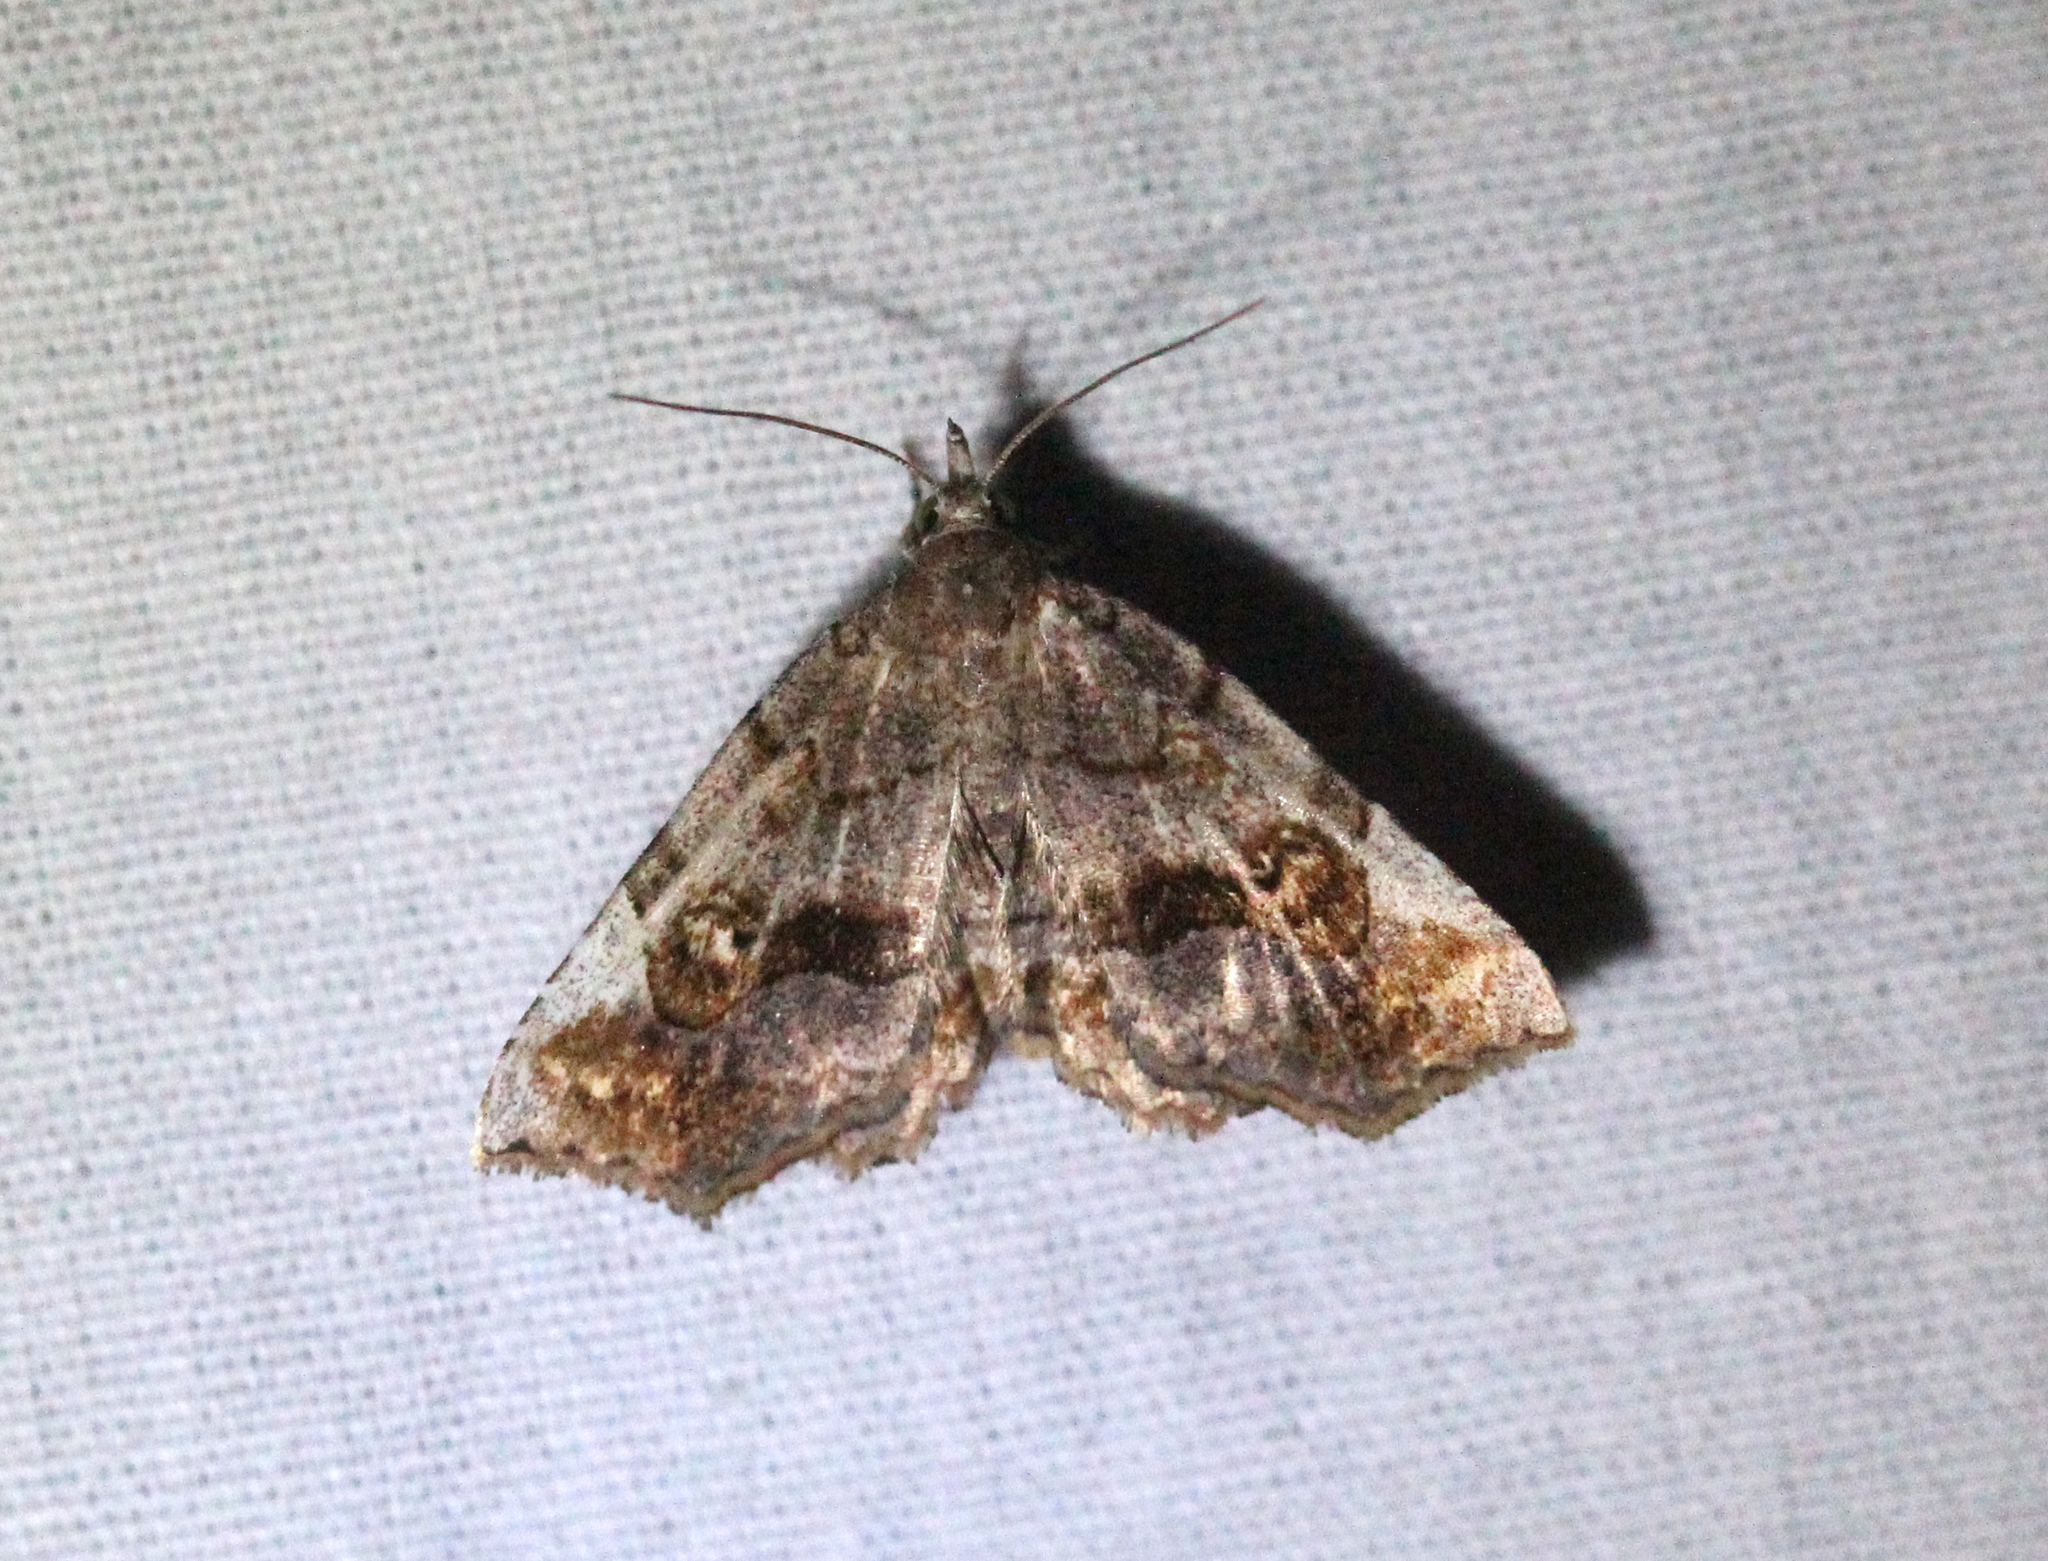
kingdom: Animalia
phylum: Arthropoda
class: Insecta
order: Lepidoptera
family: Erebidae
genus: Pangrapta
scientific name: Pangrapta decoralis
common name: Decorated owlet
